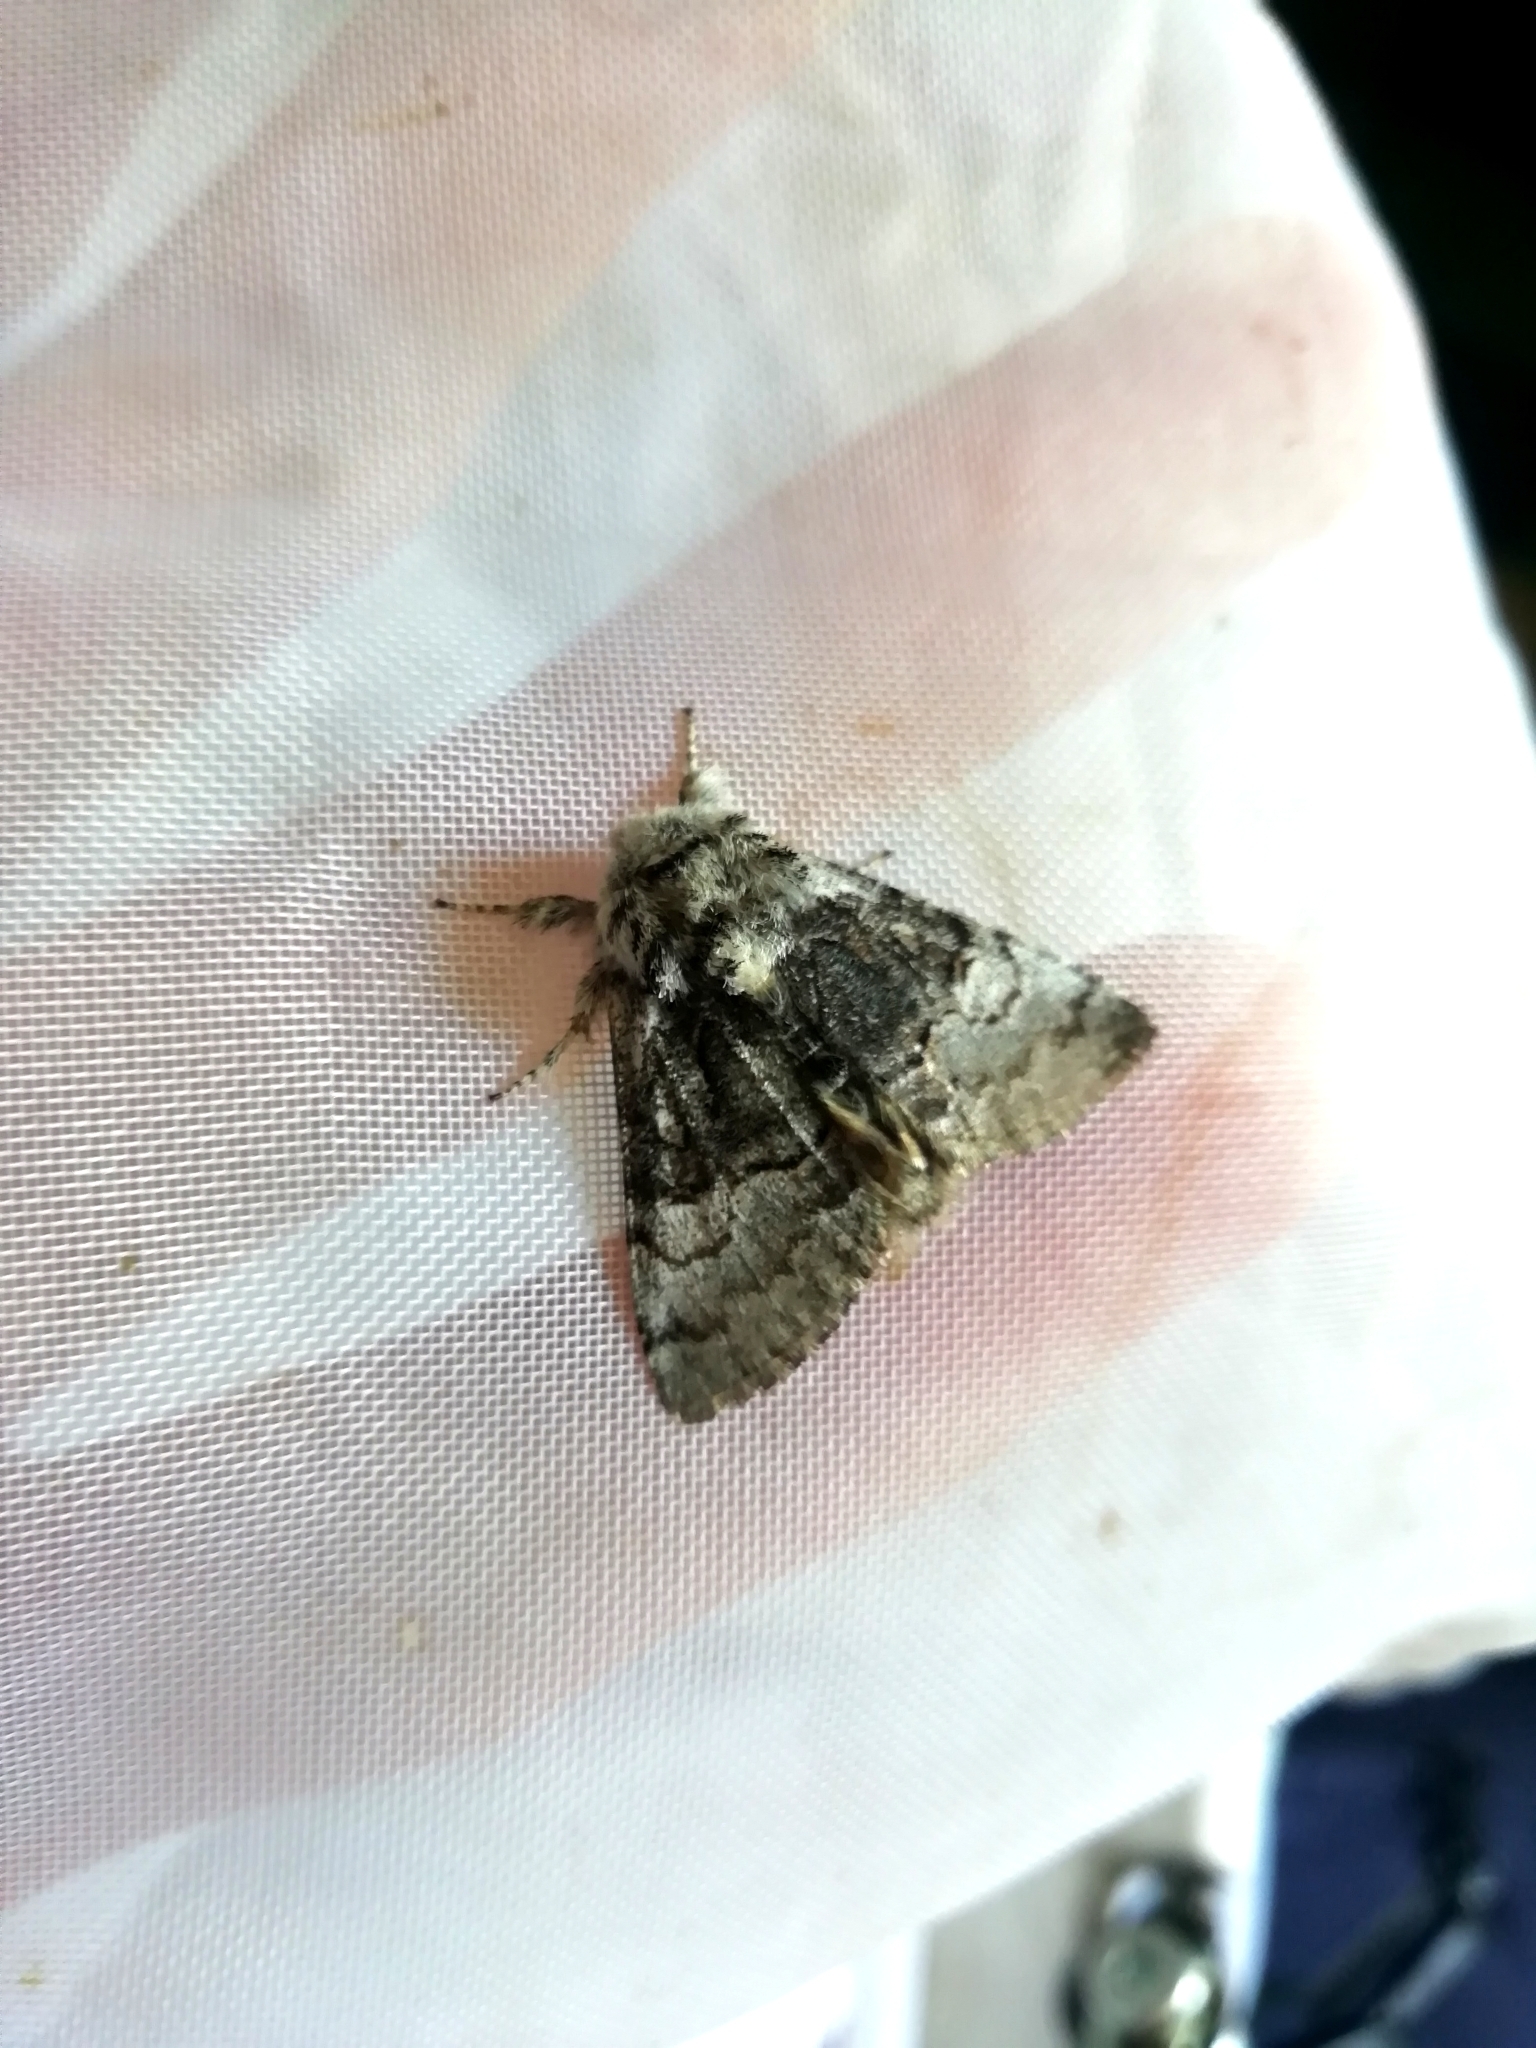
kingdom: Animalia
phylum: Arthropoda
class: Insecta
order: Lepidoptera
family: Noctuidae
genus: Colocasia
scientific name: Colocasia coryli
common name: Nut-tree tussock
